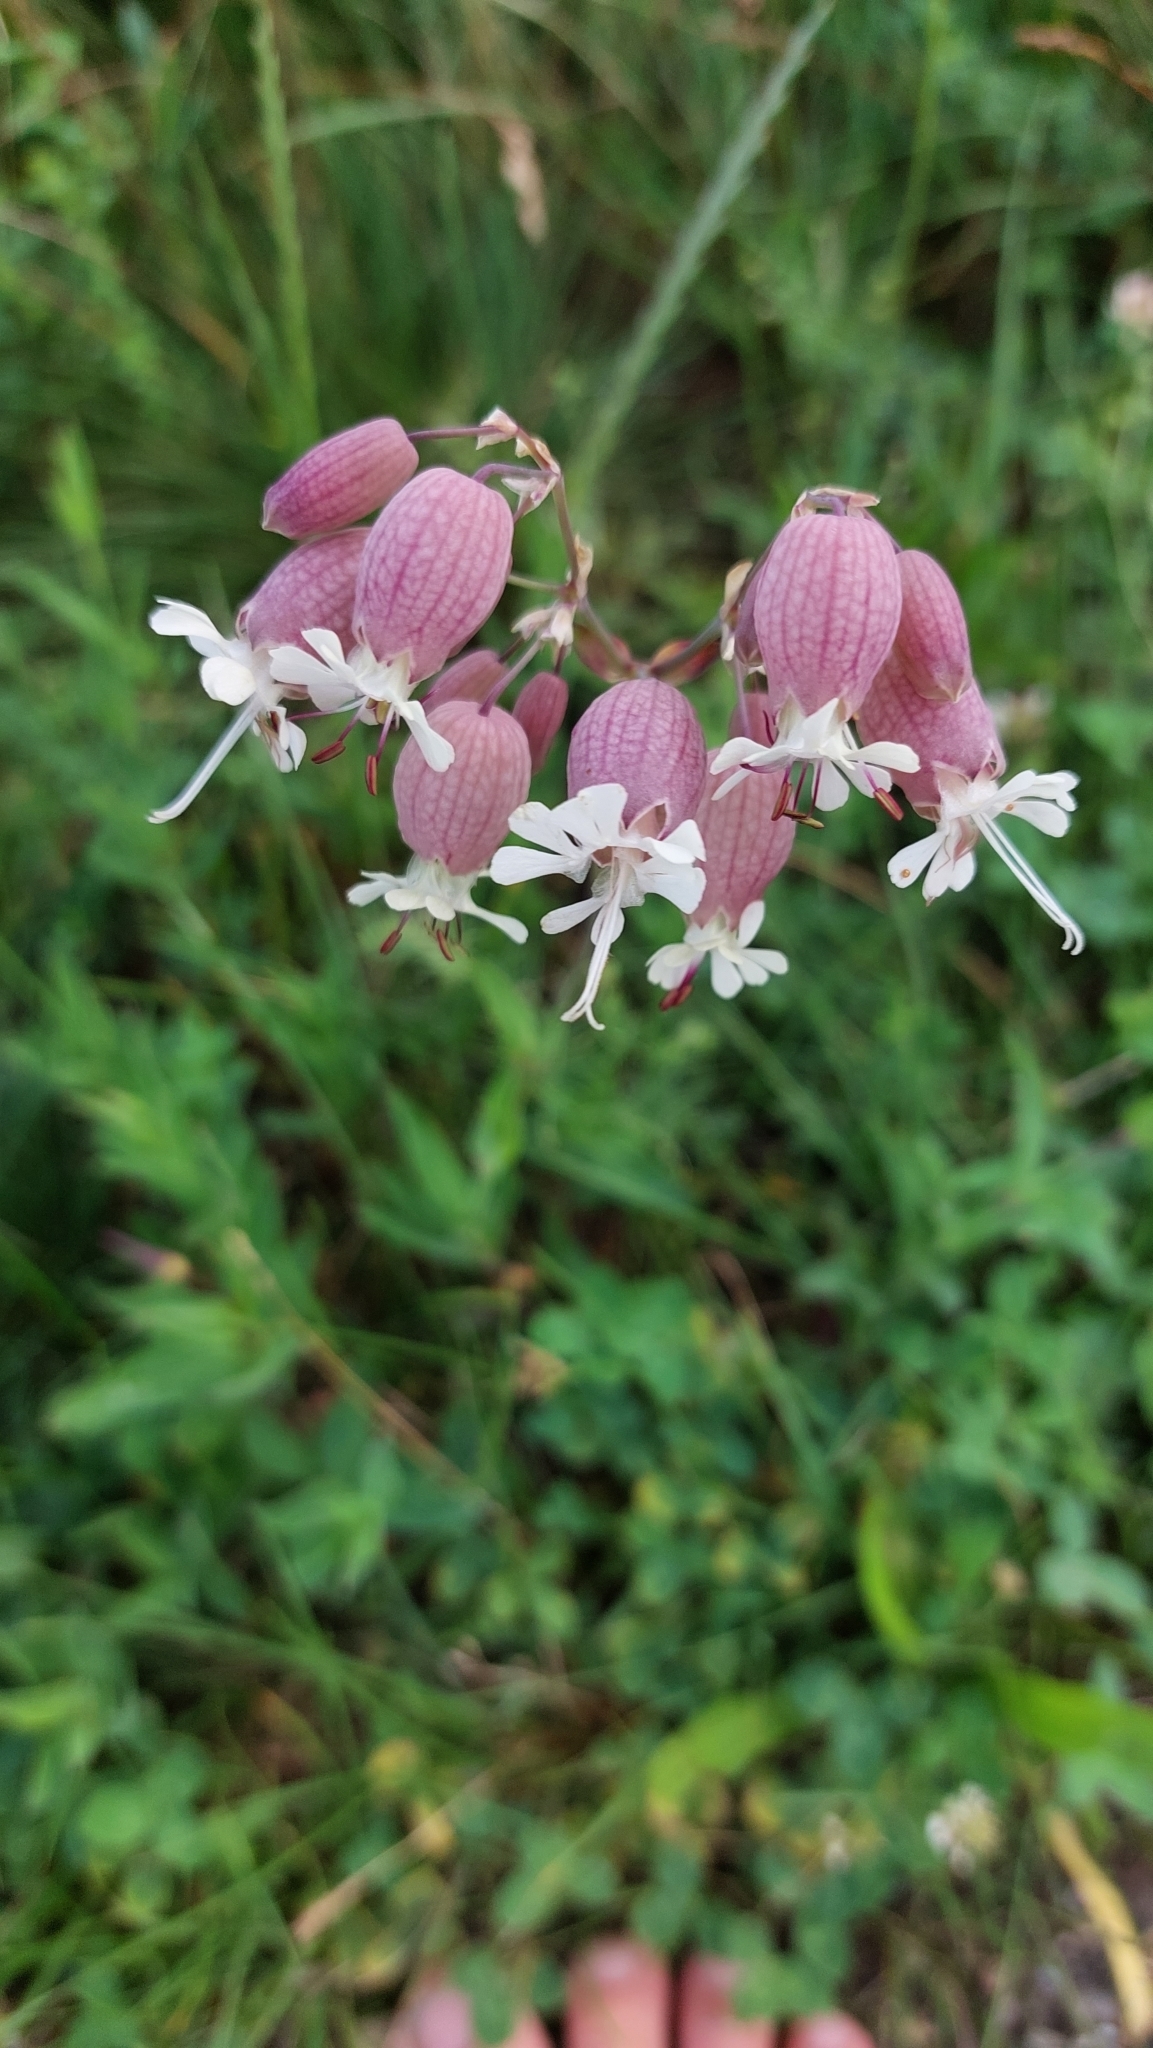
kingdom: Plantae
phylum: Tracheophyta
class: Magnoliopsida
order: Caryophyllales
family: Caryophyllaceae
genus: Silene
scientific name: Silene vulgaris
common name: Bladder campion
